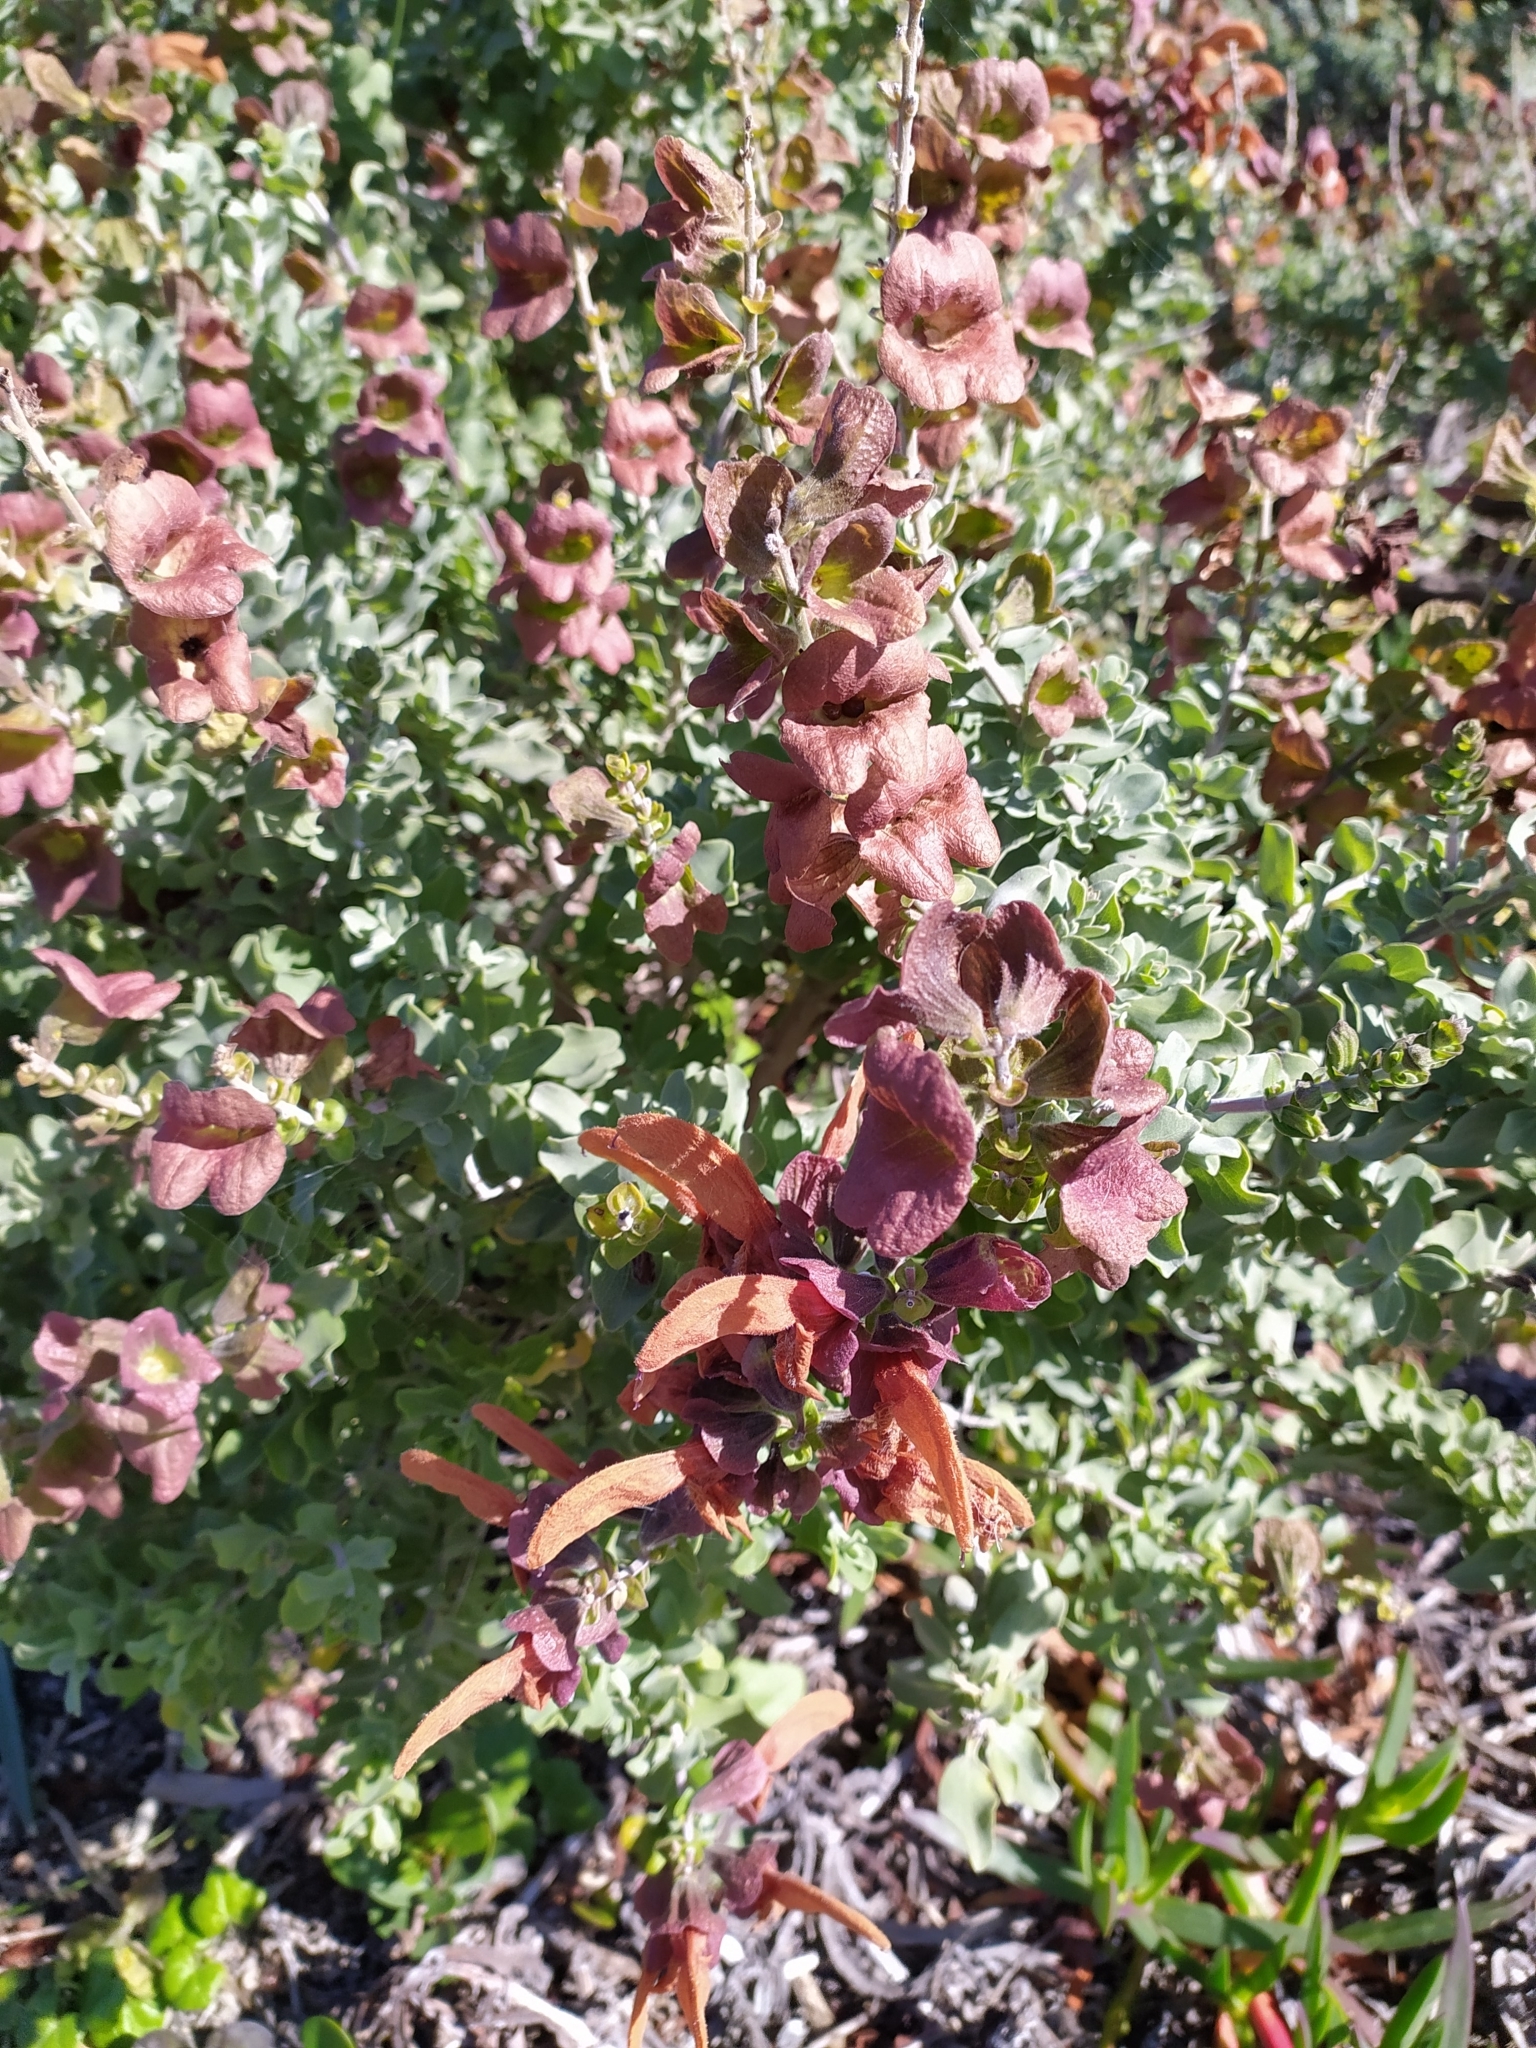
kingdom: Plantae
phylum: Tracheophyta
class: Magnoliopsida
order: Lamiales
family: Lamiaceae
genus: Salvia
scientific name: Salvia aurea
